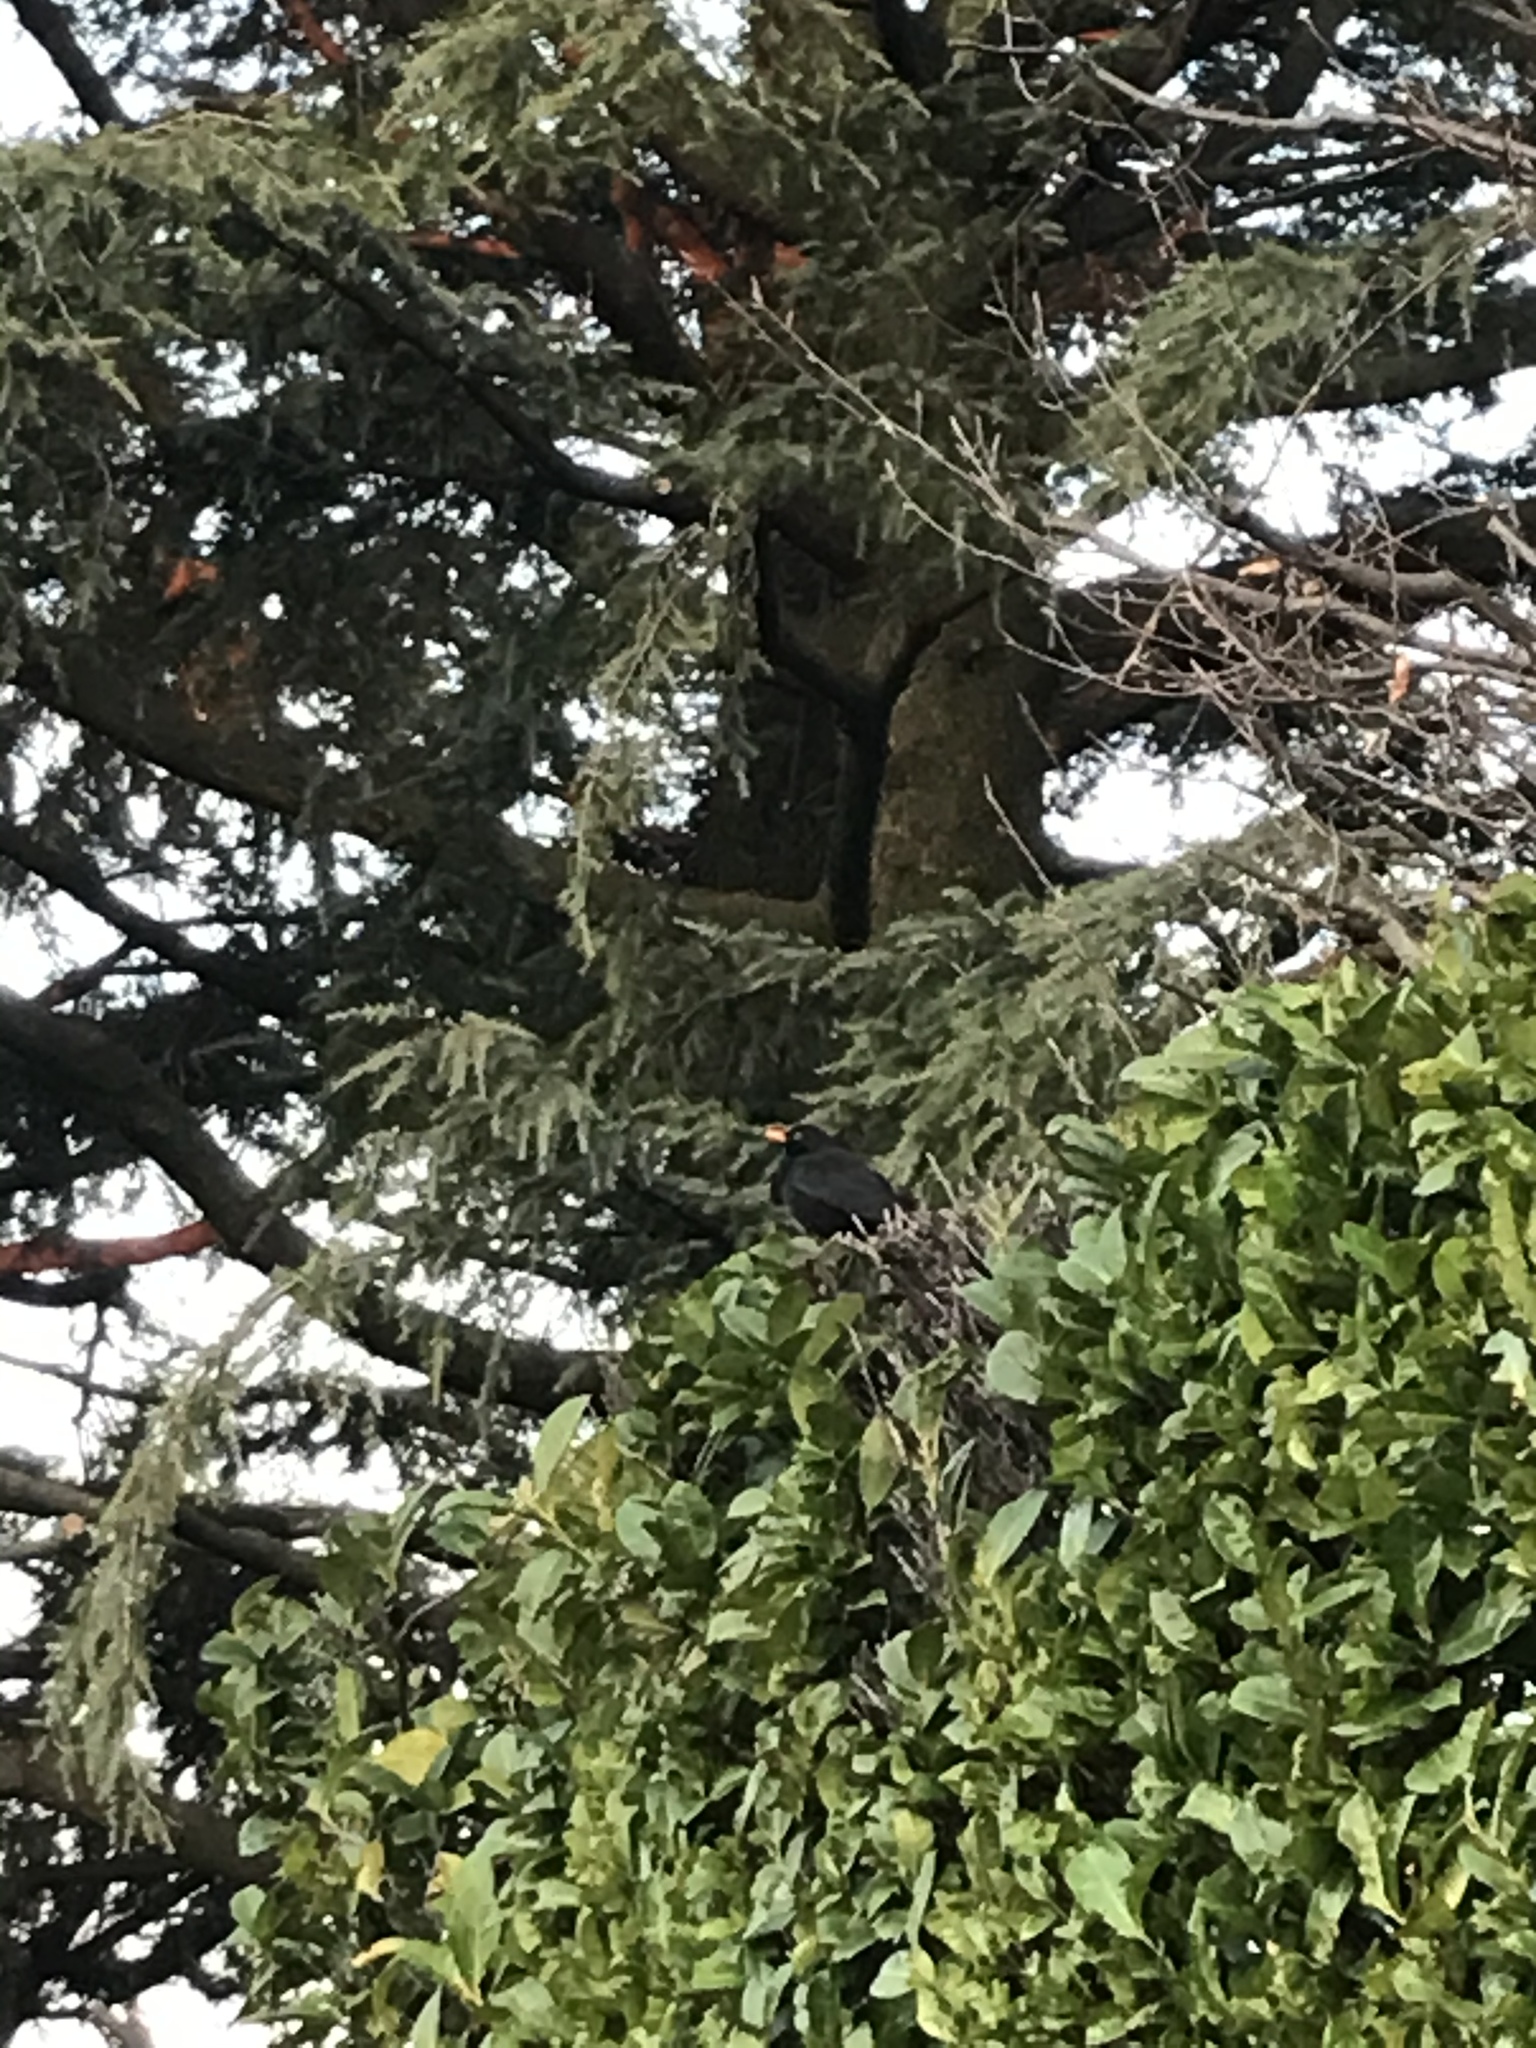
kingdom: Animalia
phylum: Chordata
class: Aves
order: Passeriformes
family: Turdidae
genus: Turdus
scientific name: Turdus merula
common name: Common blackbird
